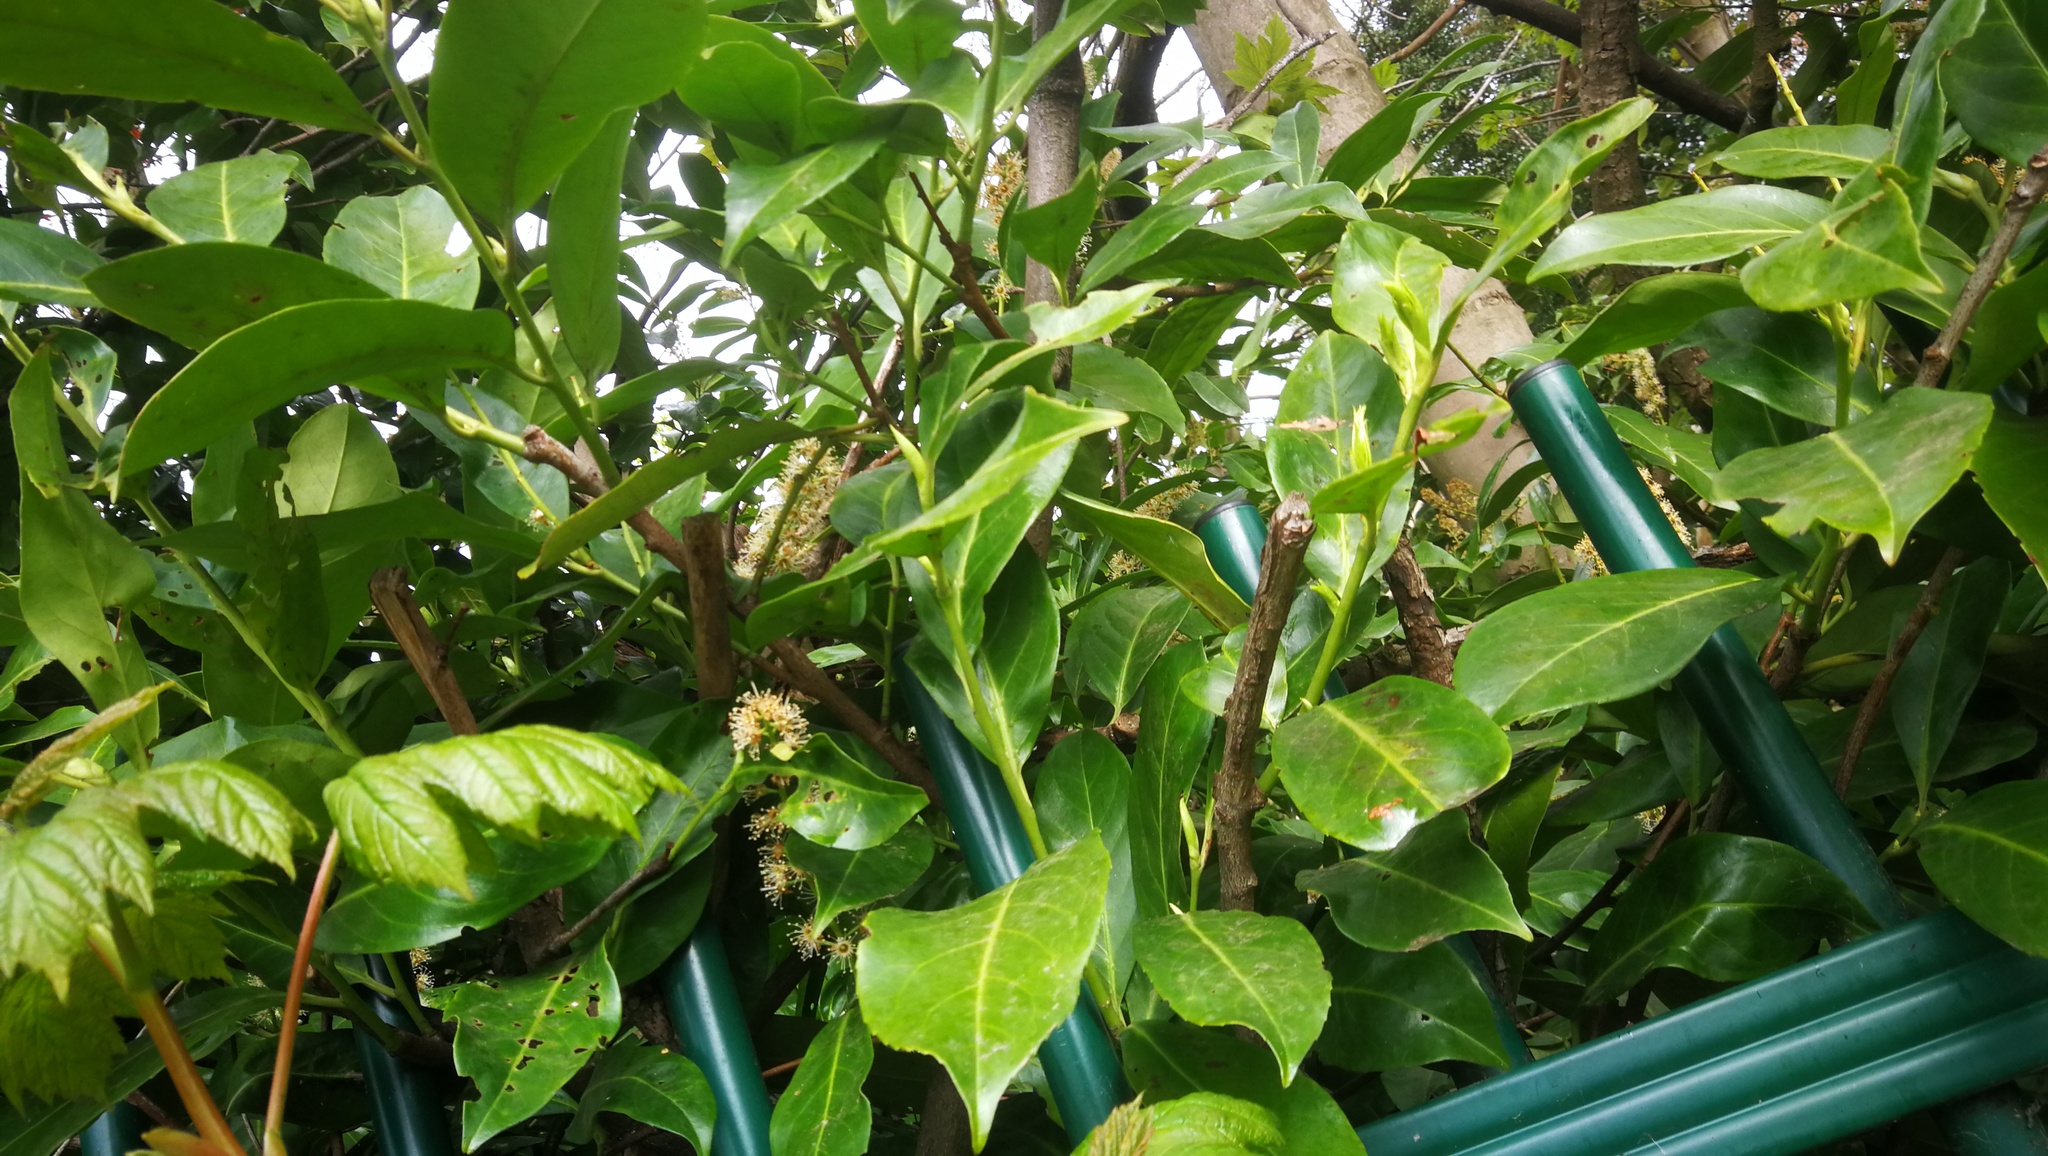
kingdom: Plantae
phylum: Tracheophyta
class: Magnoliopsida
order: Rosales
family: Rosaceae
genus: Prunus
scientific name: Prunus laurocerasus
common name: Cherry laurel
